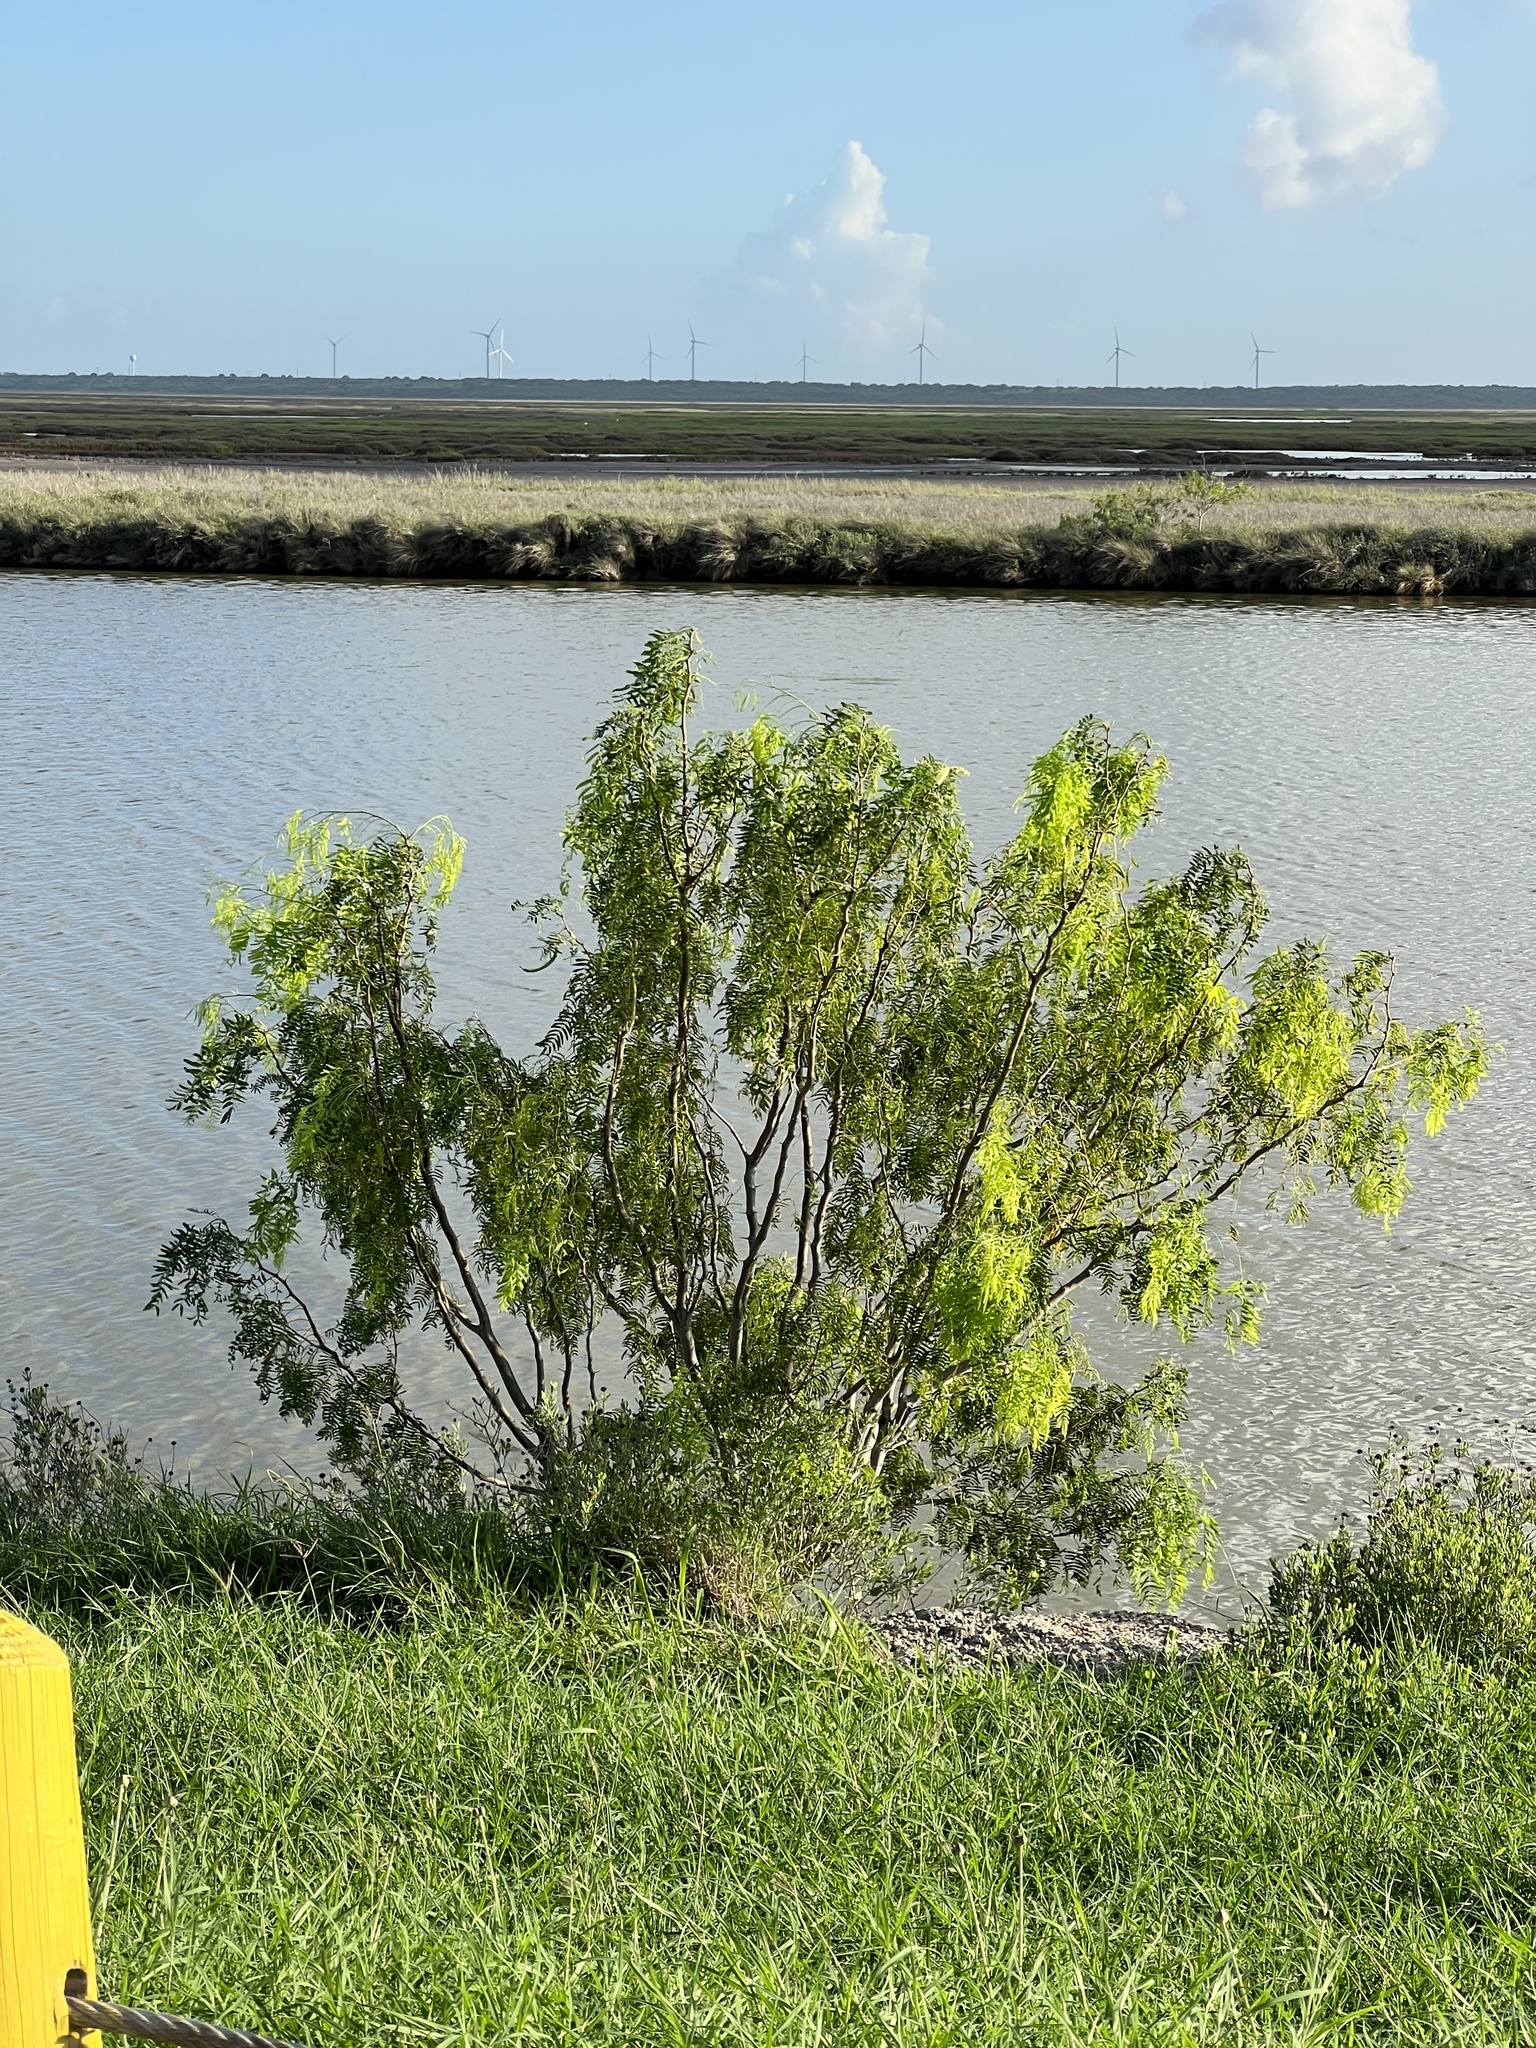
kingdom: Plantae
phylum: Tracheophyta
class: Magnoliopsida
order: Fabales
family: Fabaceae
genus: Prosopis
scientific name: Prosopis glandulosa
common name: Honey mesquite
